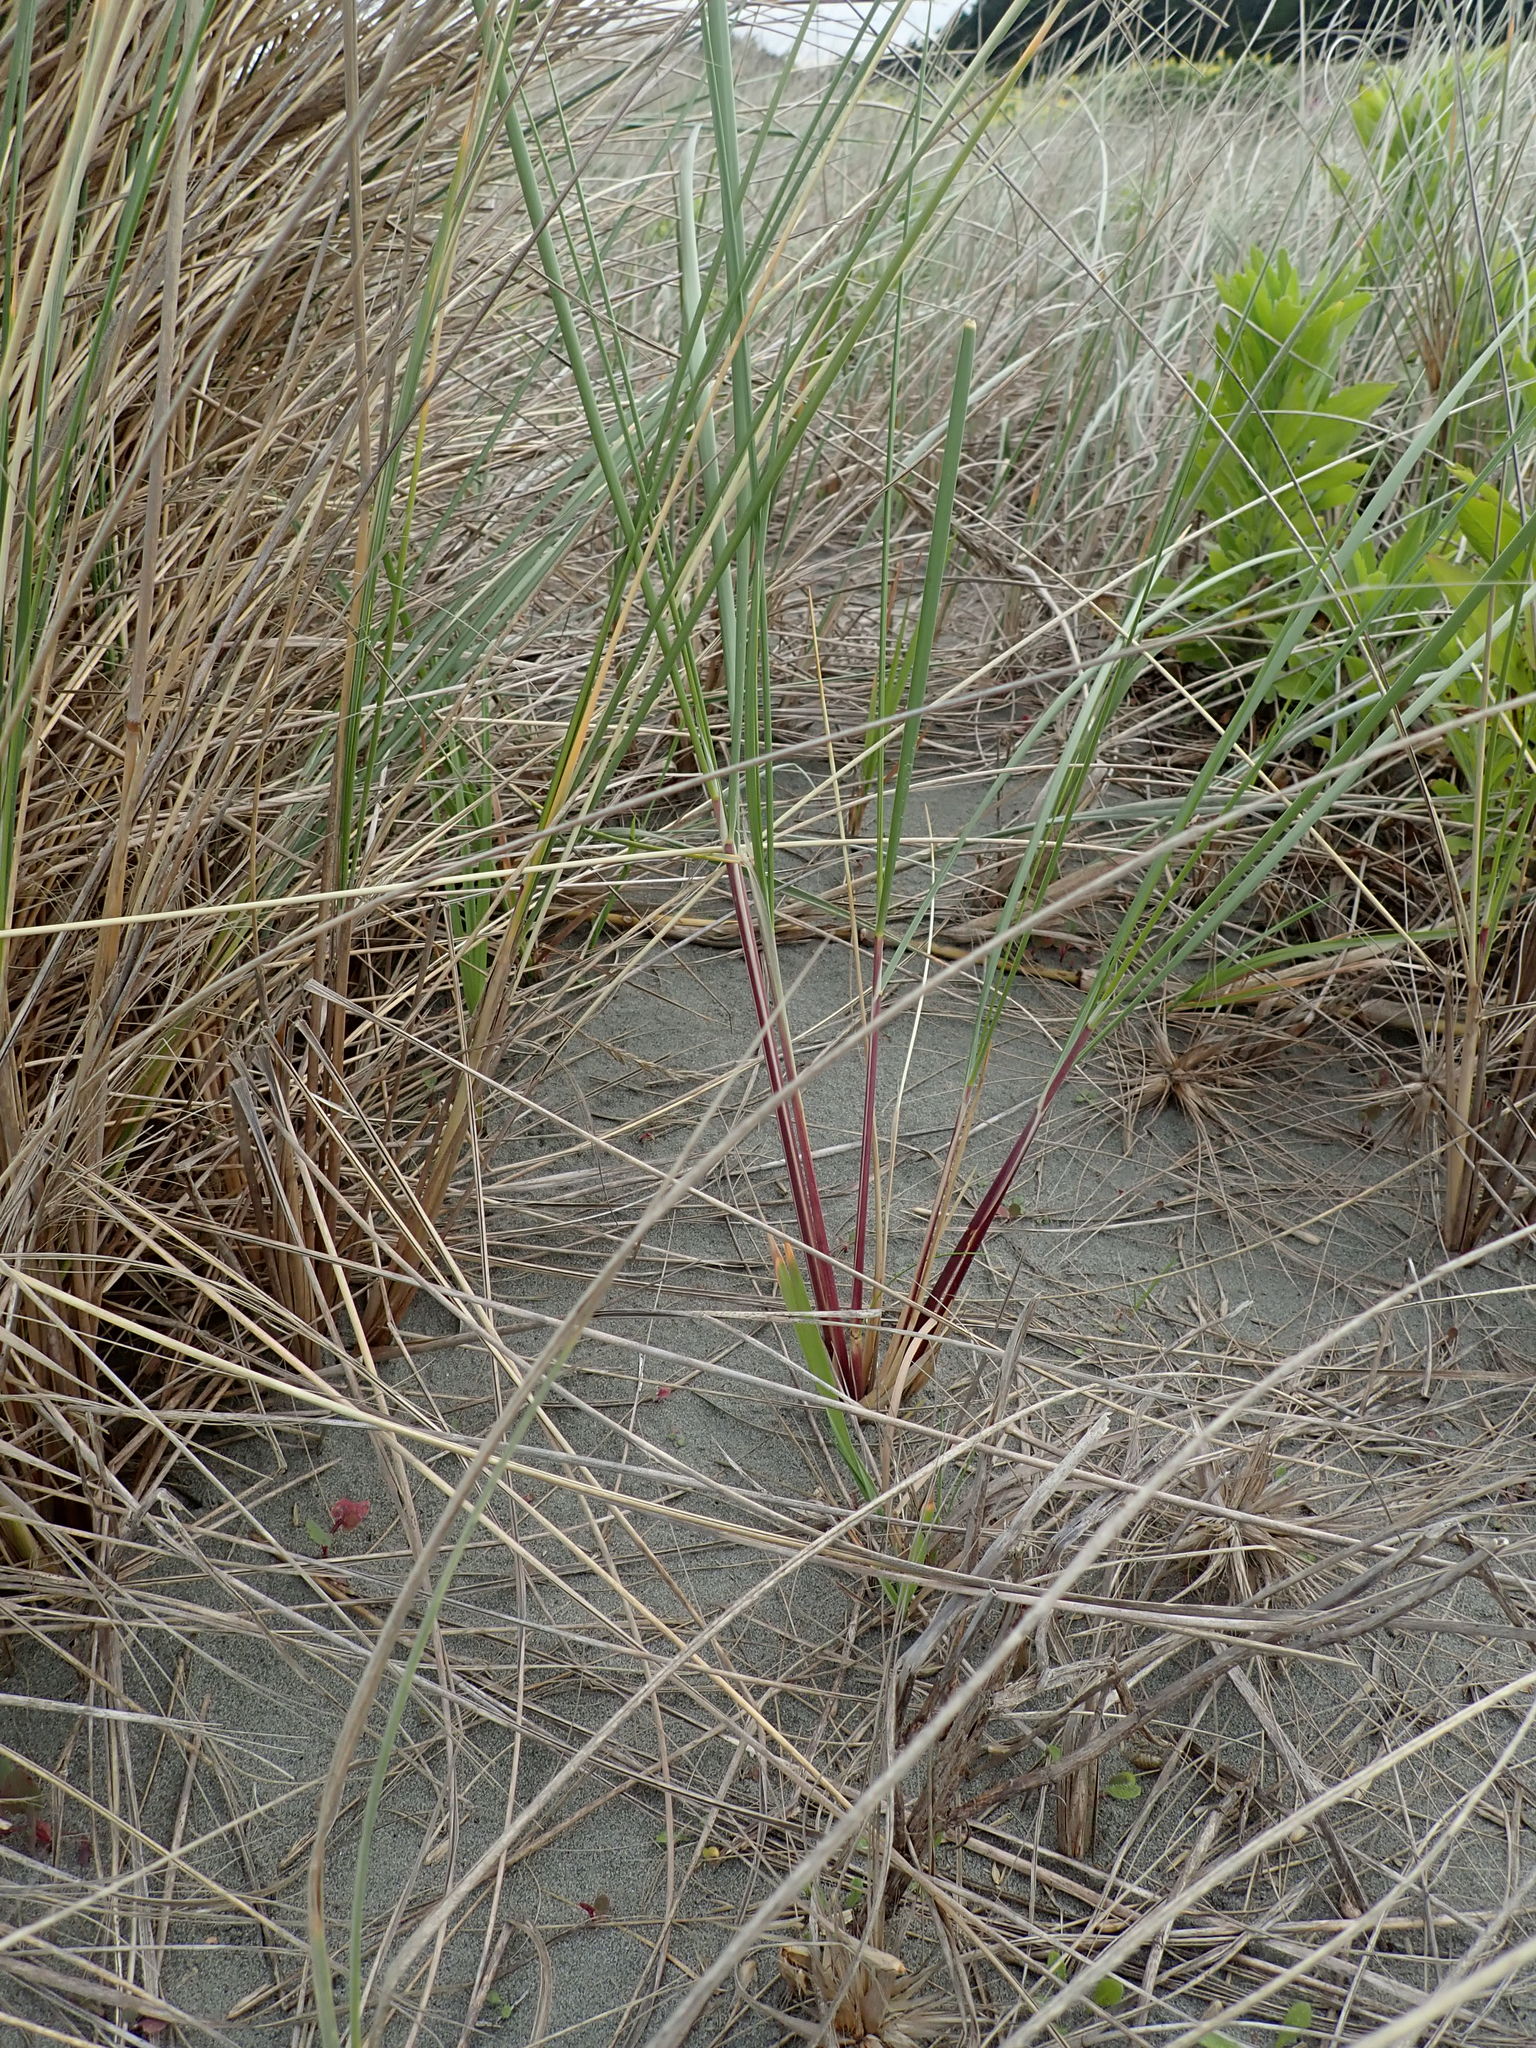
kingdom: Plantae
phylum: Tracheophyta
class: Liliopsida
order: Poales
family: Poaceae
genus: Calamagrostis
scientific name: Calamagrostis arenaria
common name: European beachgrass
